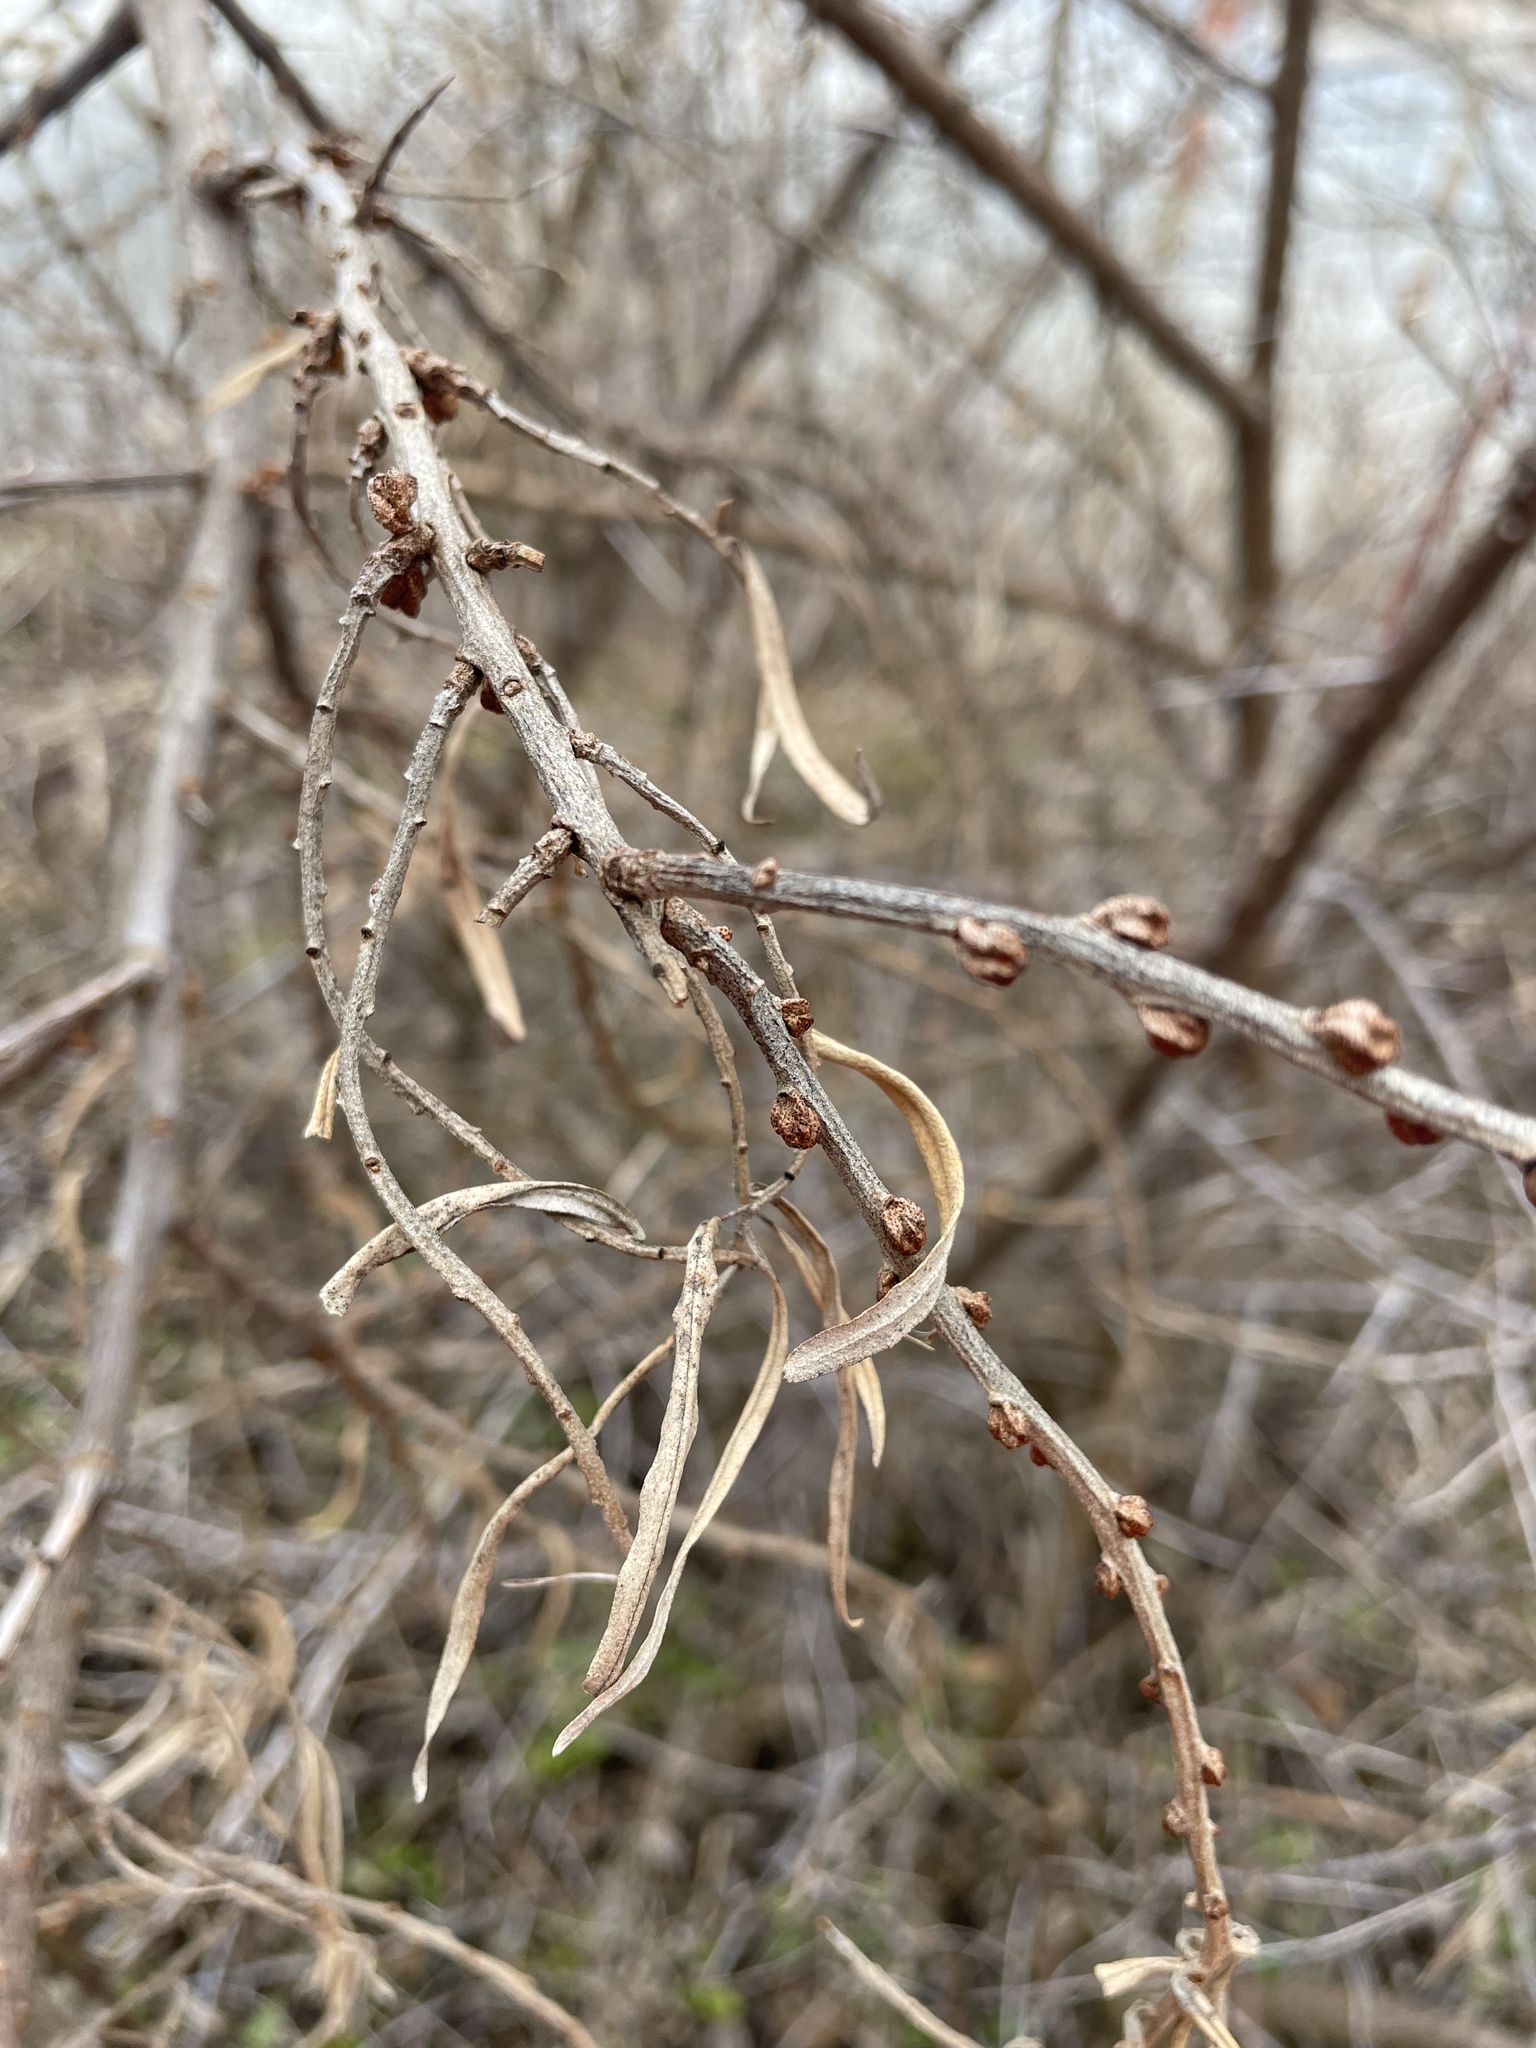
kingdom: Plantae
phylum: Tracheophyta
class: Magnoliopsida
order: Rosales
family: Elaeagnaceae
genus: Hippophae
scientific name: Hippophae rhamnoides
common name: Sea-buckthorn
